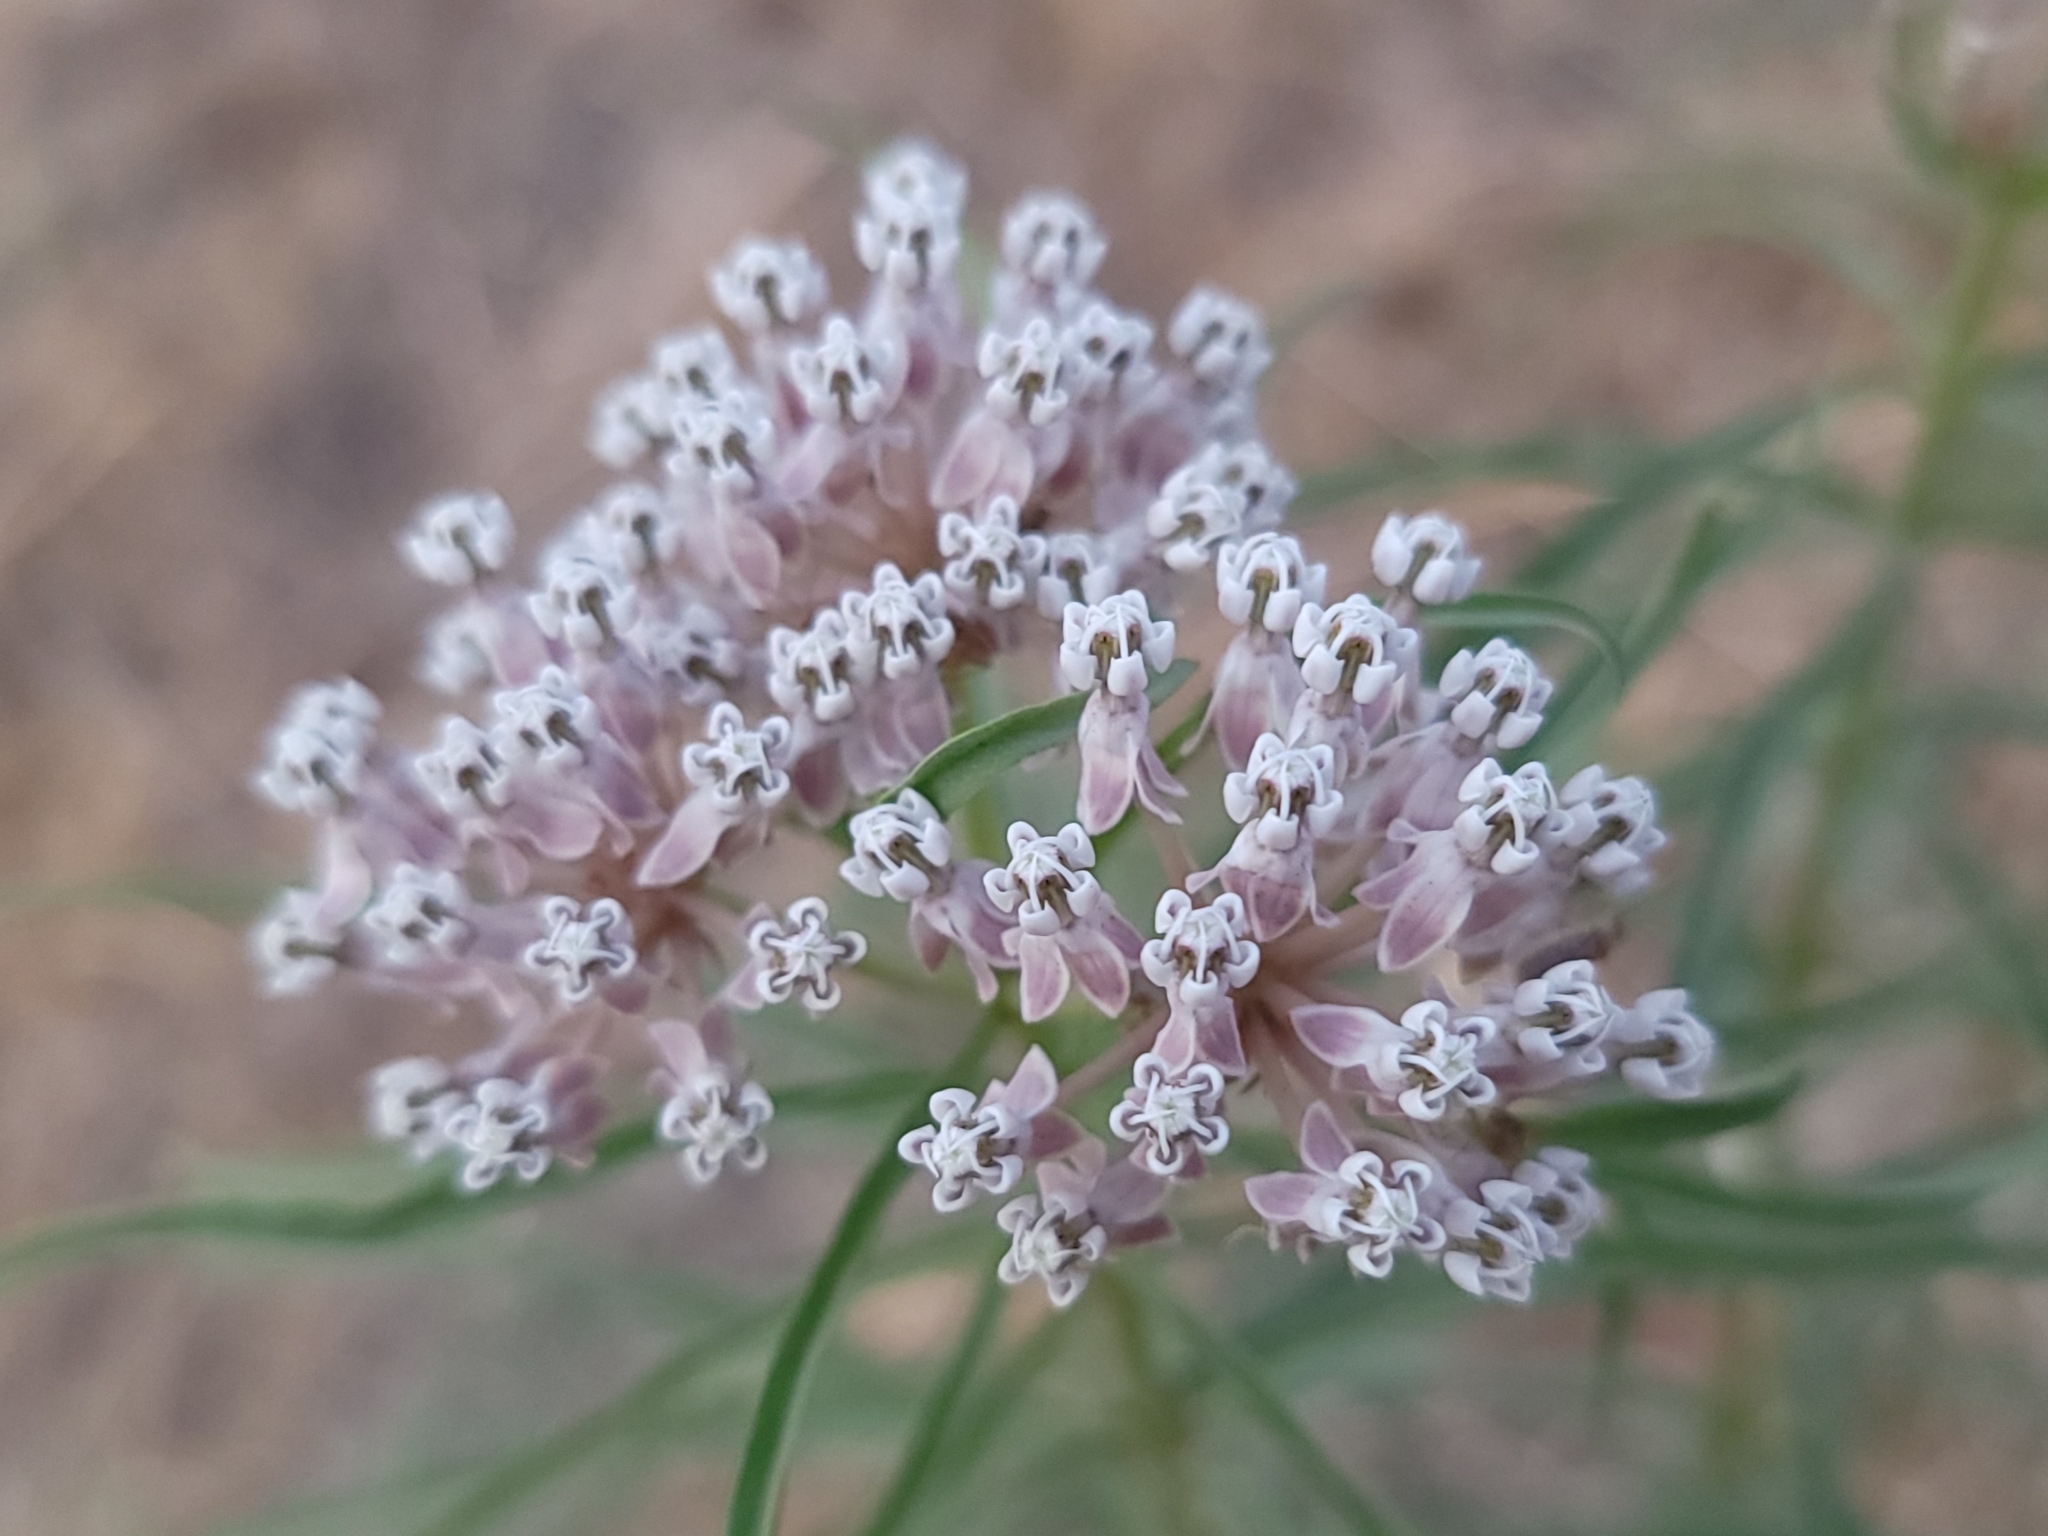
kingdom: Plantae
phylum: Tracheophyta
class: Magnoliopsida
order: Gentianales
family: Apocynaceae
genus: Asclepias
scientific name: Asclepias fascicularis
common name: Mexican milkweed
